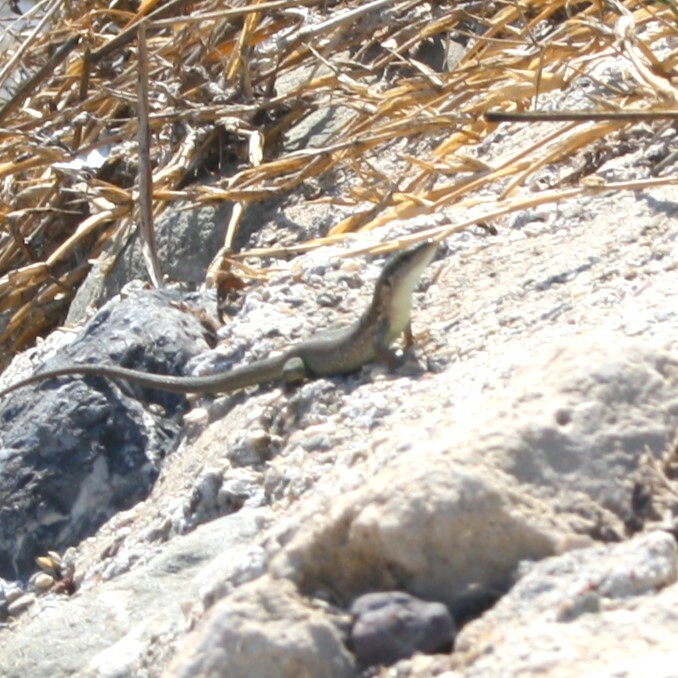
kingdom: Animalia
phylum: Chordata
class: Squamata
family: Lacertidae
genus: Phoenicolacerta
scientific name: Phoenicolacerta laevis
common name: Lebanon lizard
